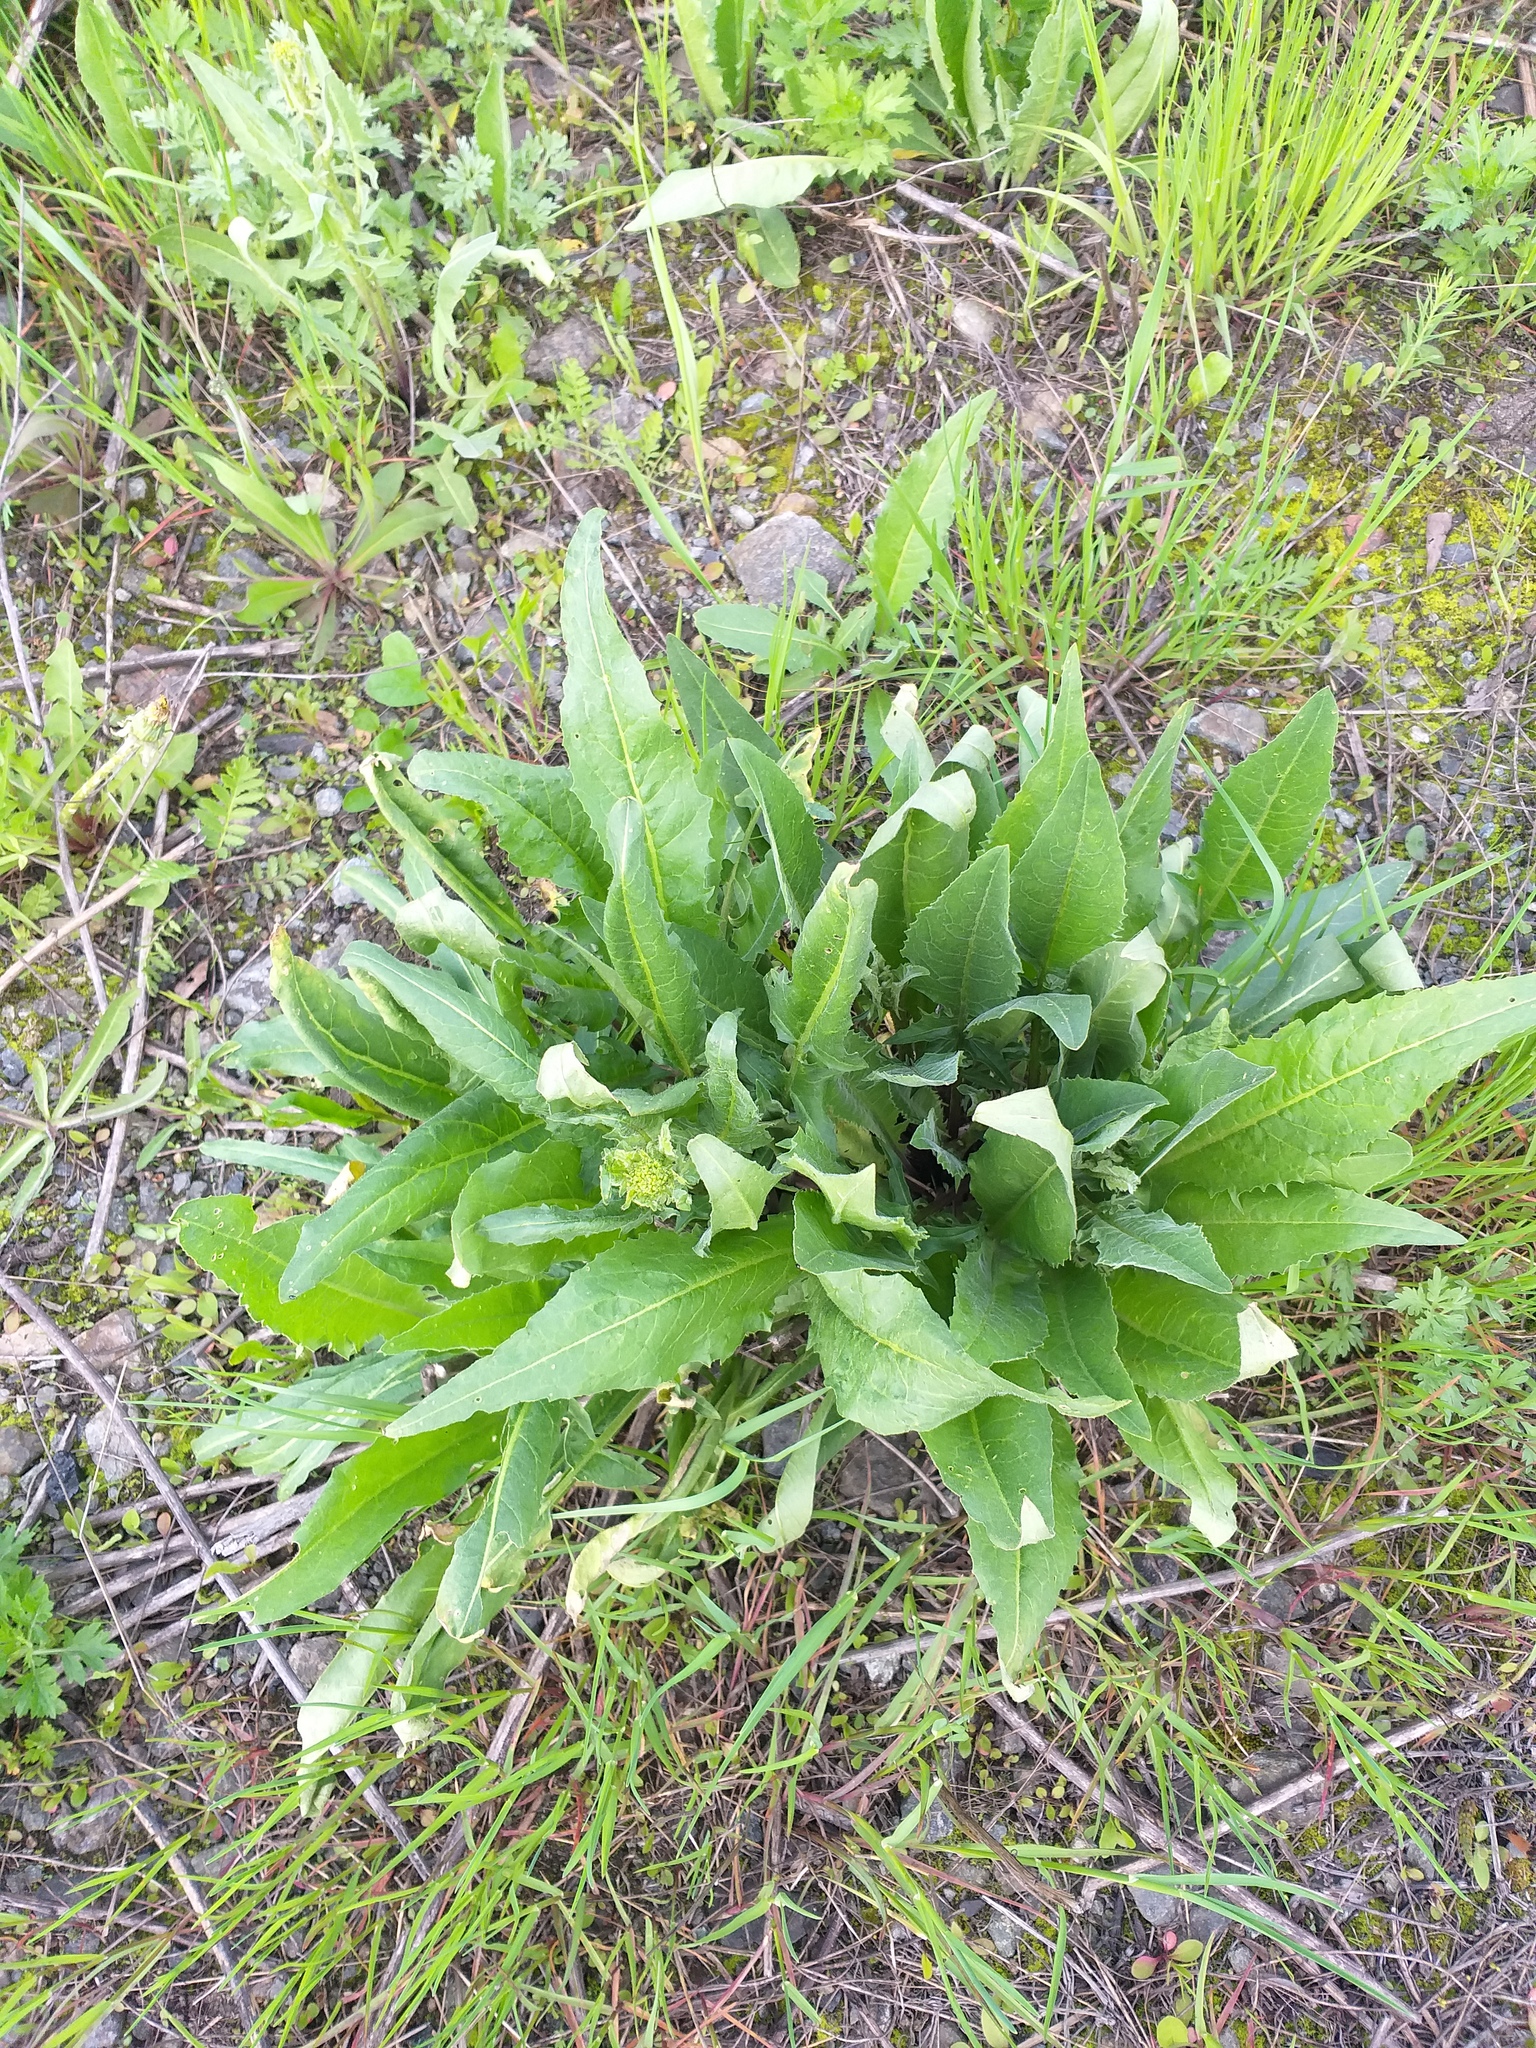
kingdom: Plantae
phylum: Tracheophyta
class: Magnoliopsida
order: Brassicales
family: Brassicaceae
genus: Bunias
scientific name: Bunias orientalis
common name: Warty-cabbage
